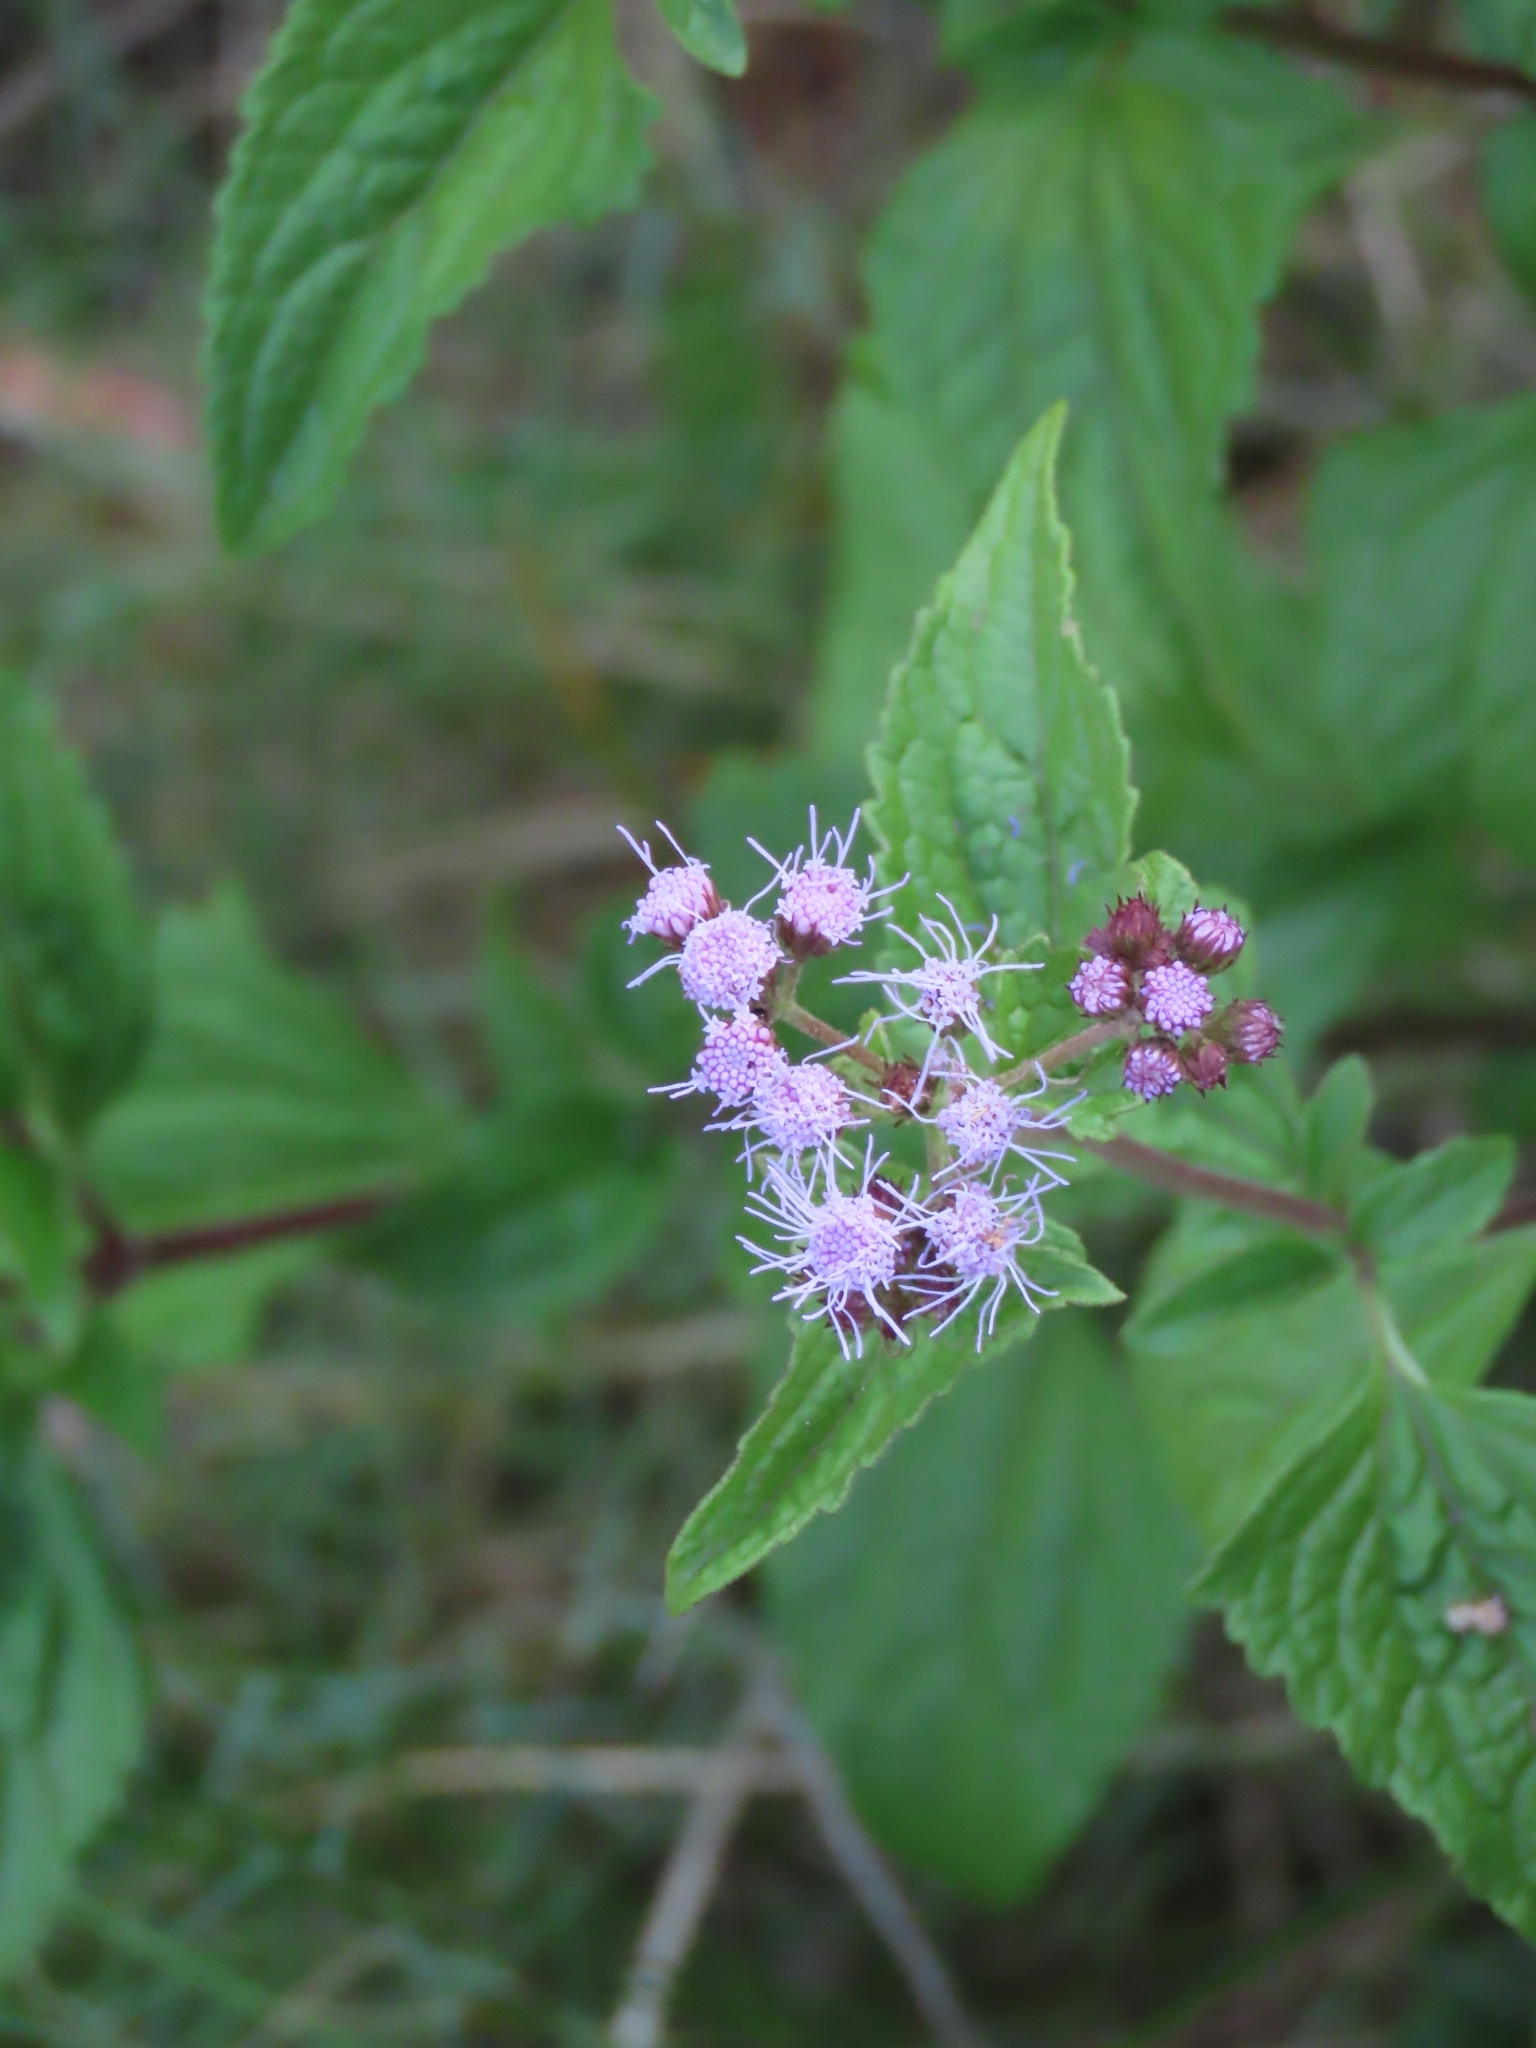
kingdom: Plantae
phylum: Tracheophyta
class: Magnoliopsida
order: Asterales
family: Asteraceae
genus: Conoclinium
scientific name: Conoclinium coelestinum
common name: Blue mistflower
